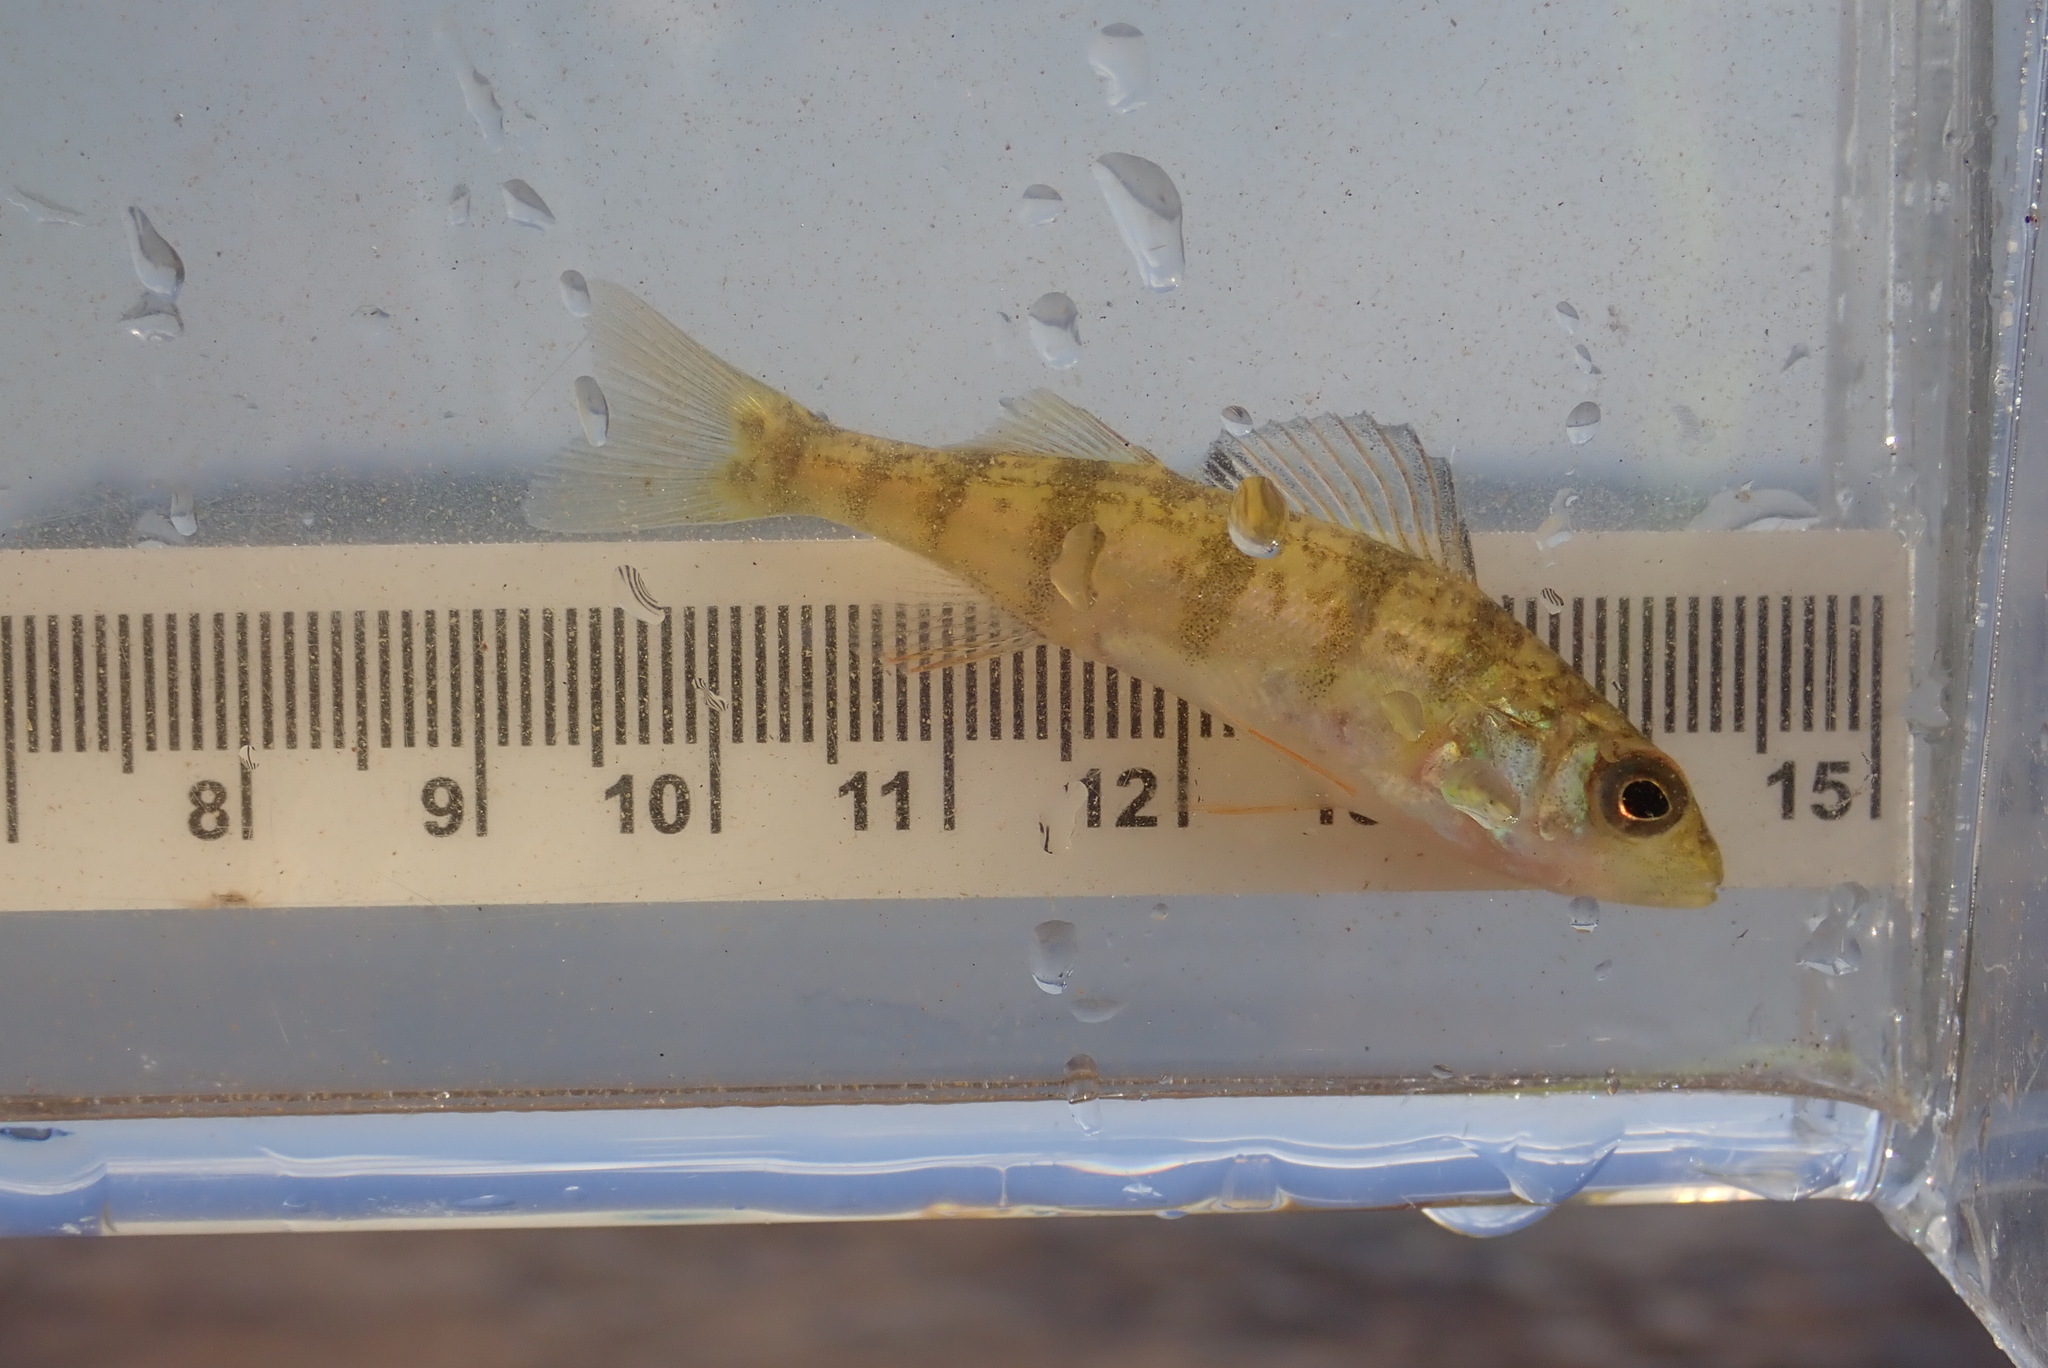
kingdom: Animalia
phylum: Chordata
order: Perciformes
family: Percidae
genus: Perca
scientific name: Perca flavescens
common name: Yellow perch
